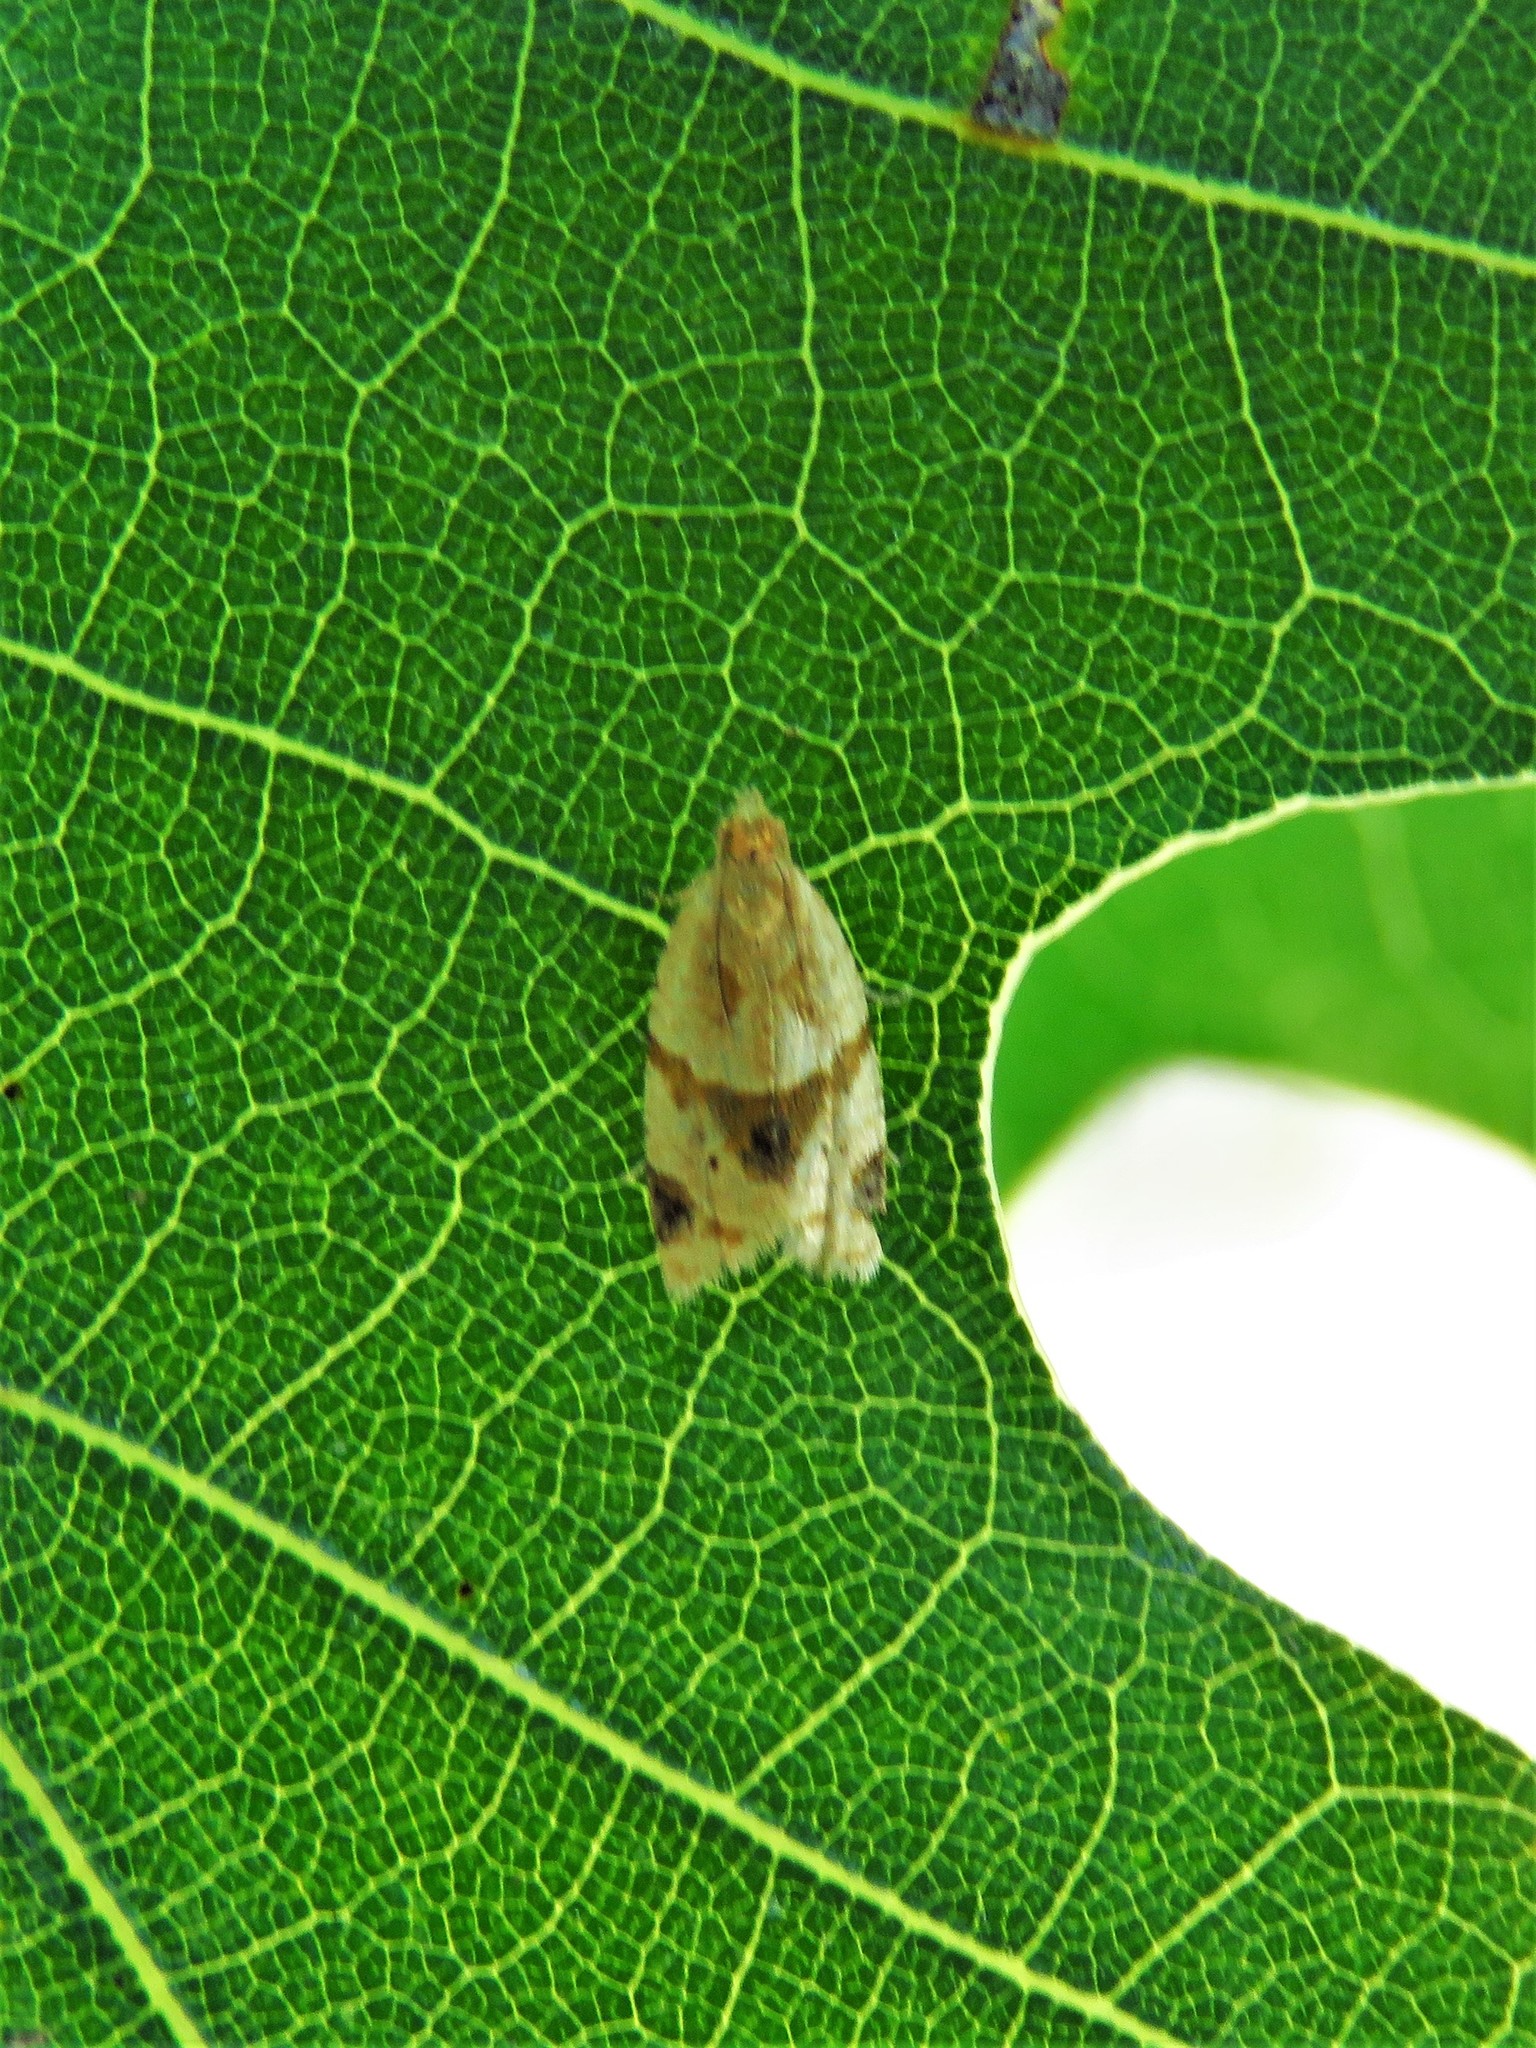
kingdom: Animalia
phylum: Arthropoda
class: Insecta
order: Lepidoptera
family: Tortricidae
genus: Clepsis
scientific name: Clepsis peritana
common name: Garden tortrix
